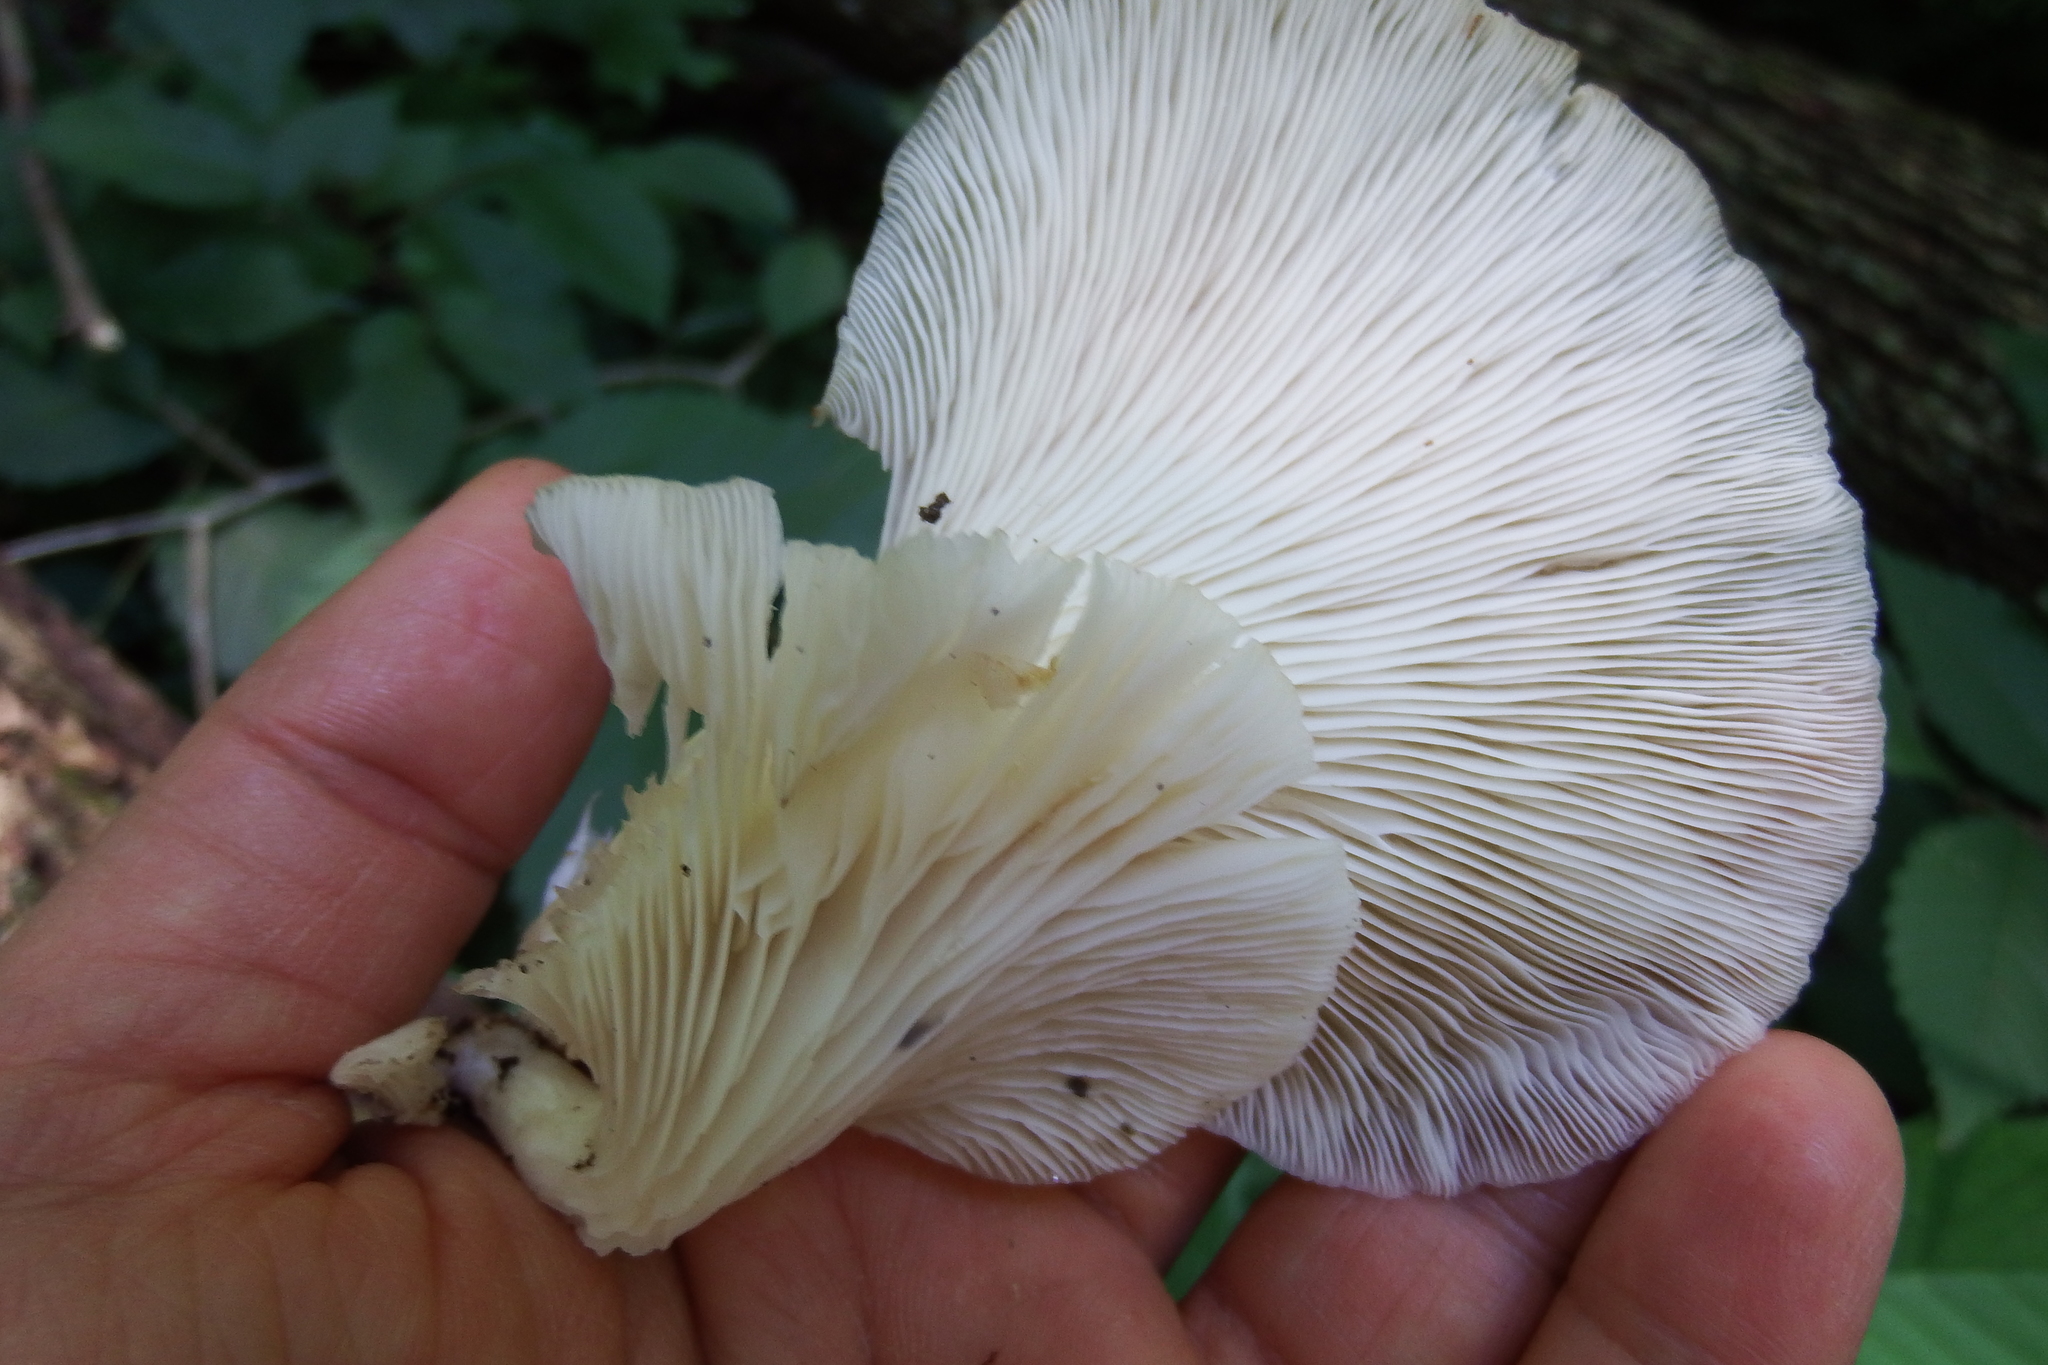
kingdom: Fungi
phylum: Basidiomycota
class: Agaricomycetes
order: Agaricales
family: Pleurotaceae
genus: Pleurotus
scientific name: Pleurotus pulmonarius
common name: Pale oyster
